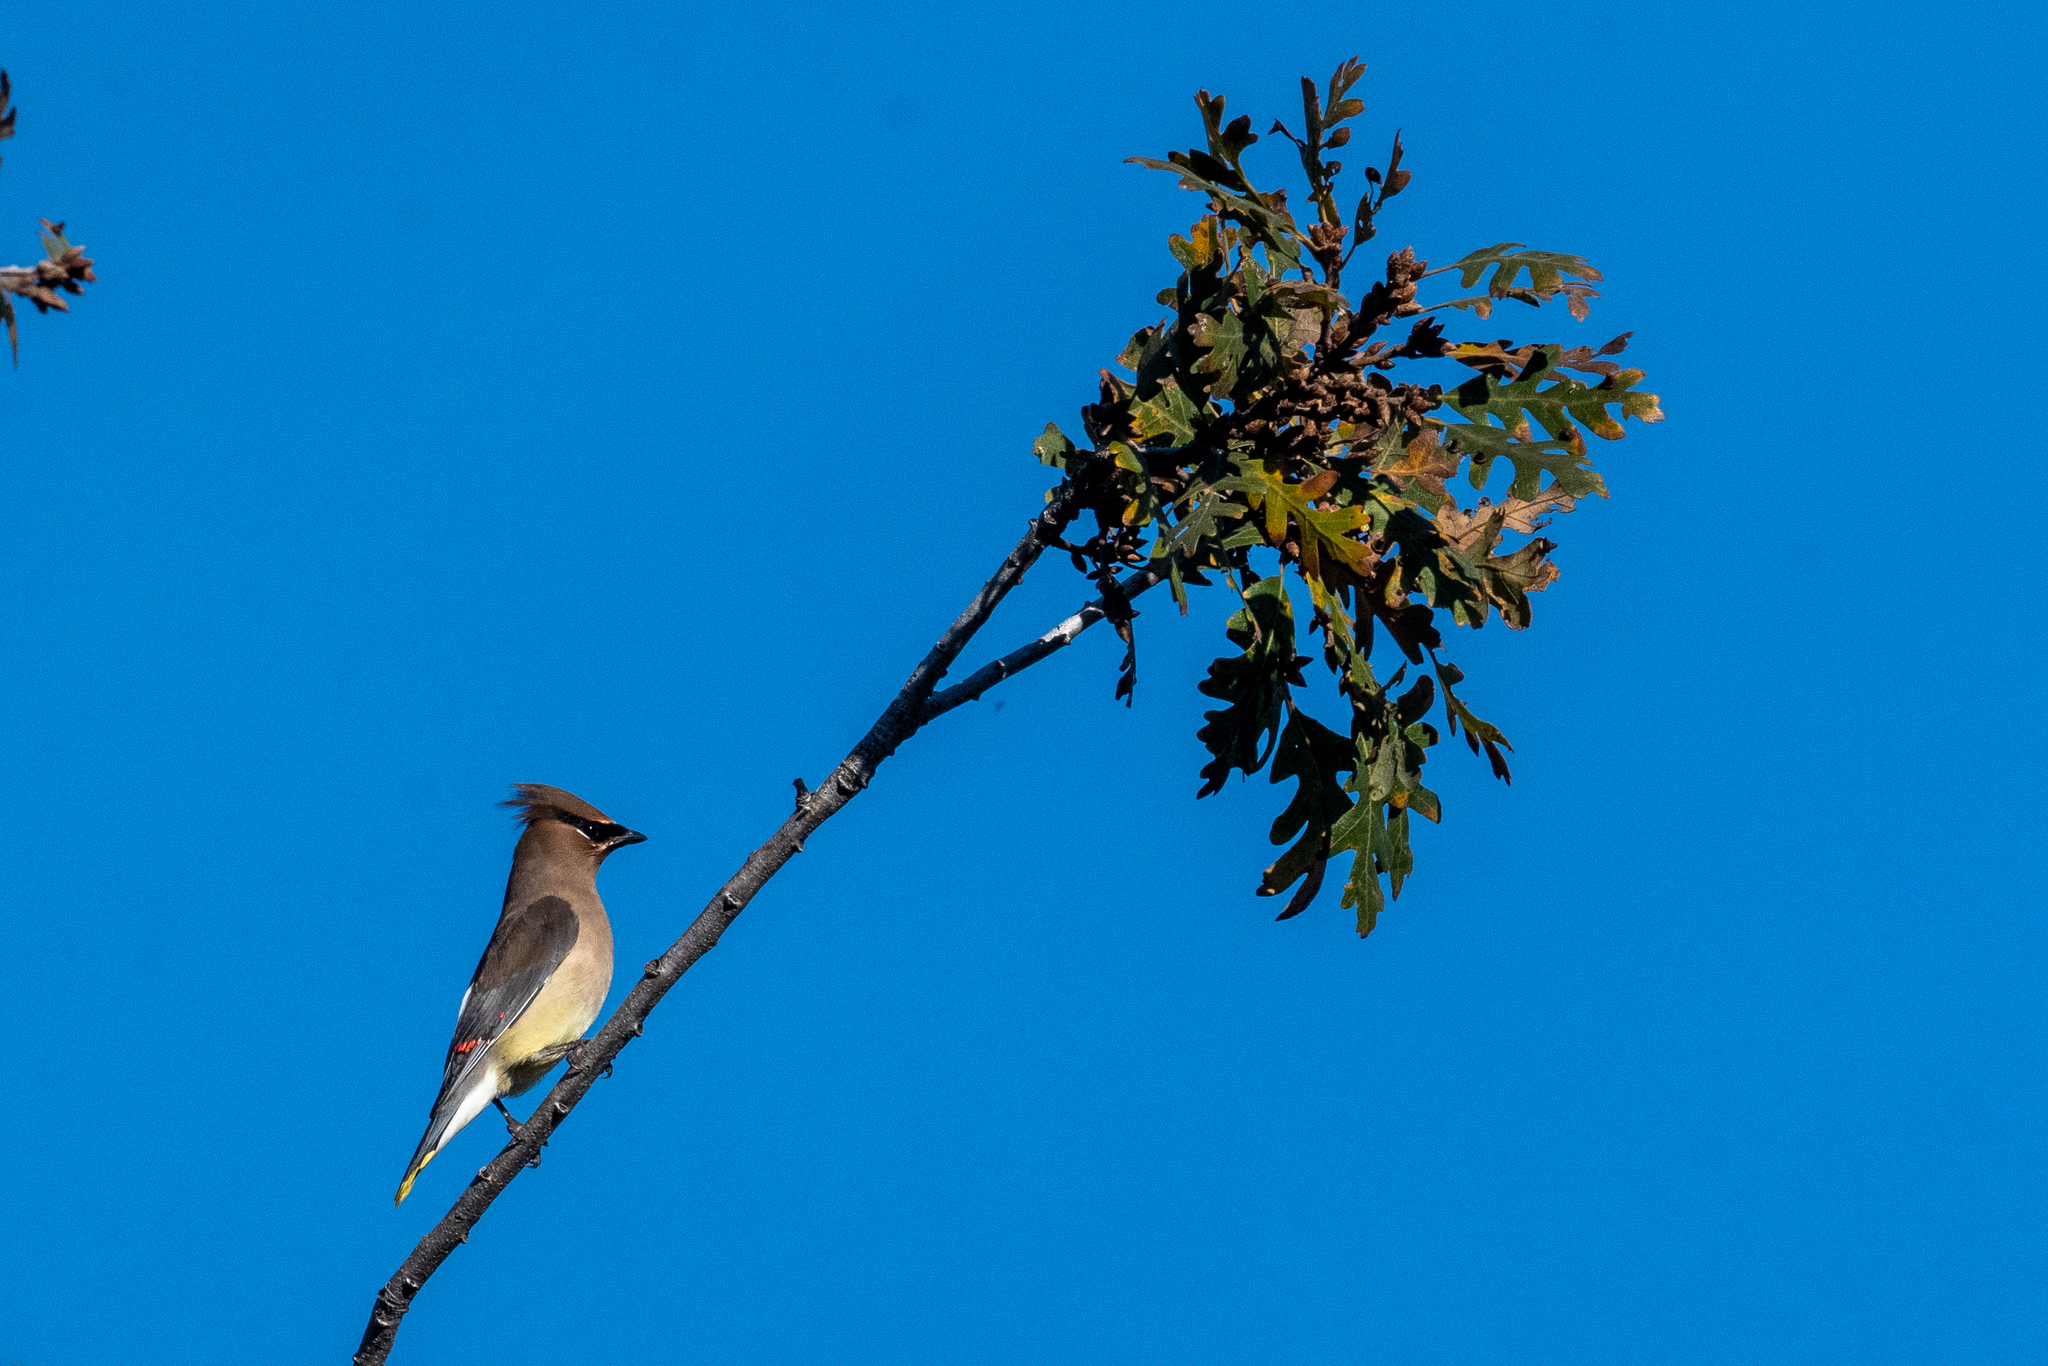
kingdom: Animalia
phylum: Chordata
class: Aves
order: Passeriformes
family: Bombycillidae
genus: Bombycilla
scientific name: Bombycilla cedrorum
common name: Cedar waxwing
